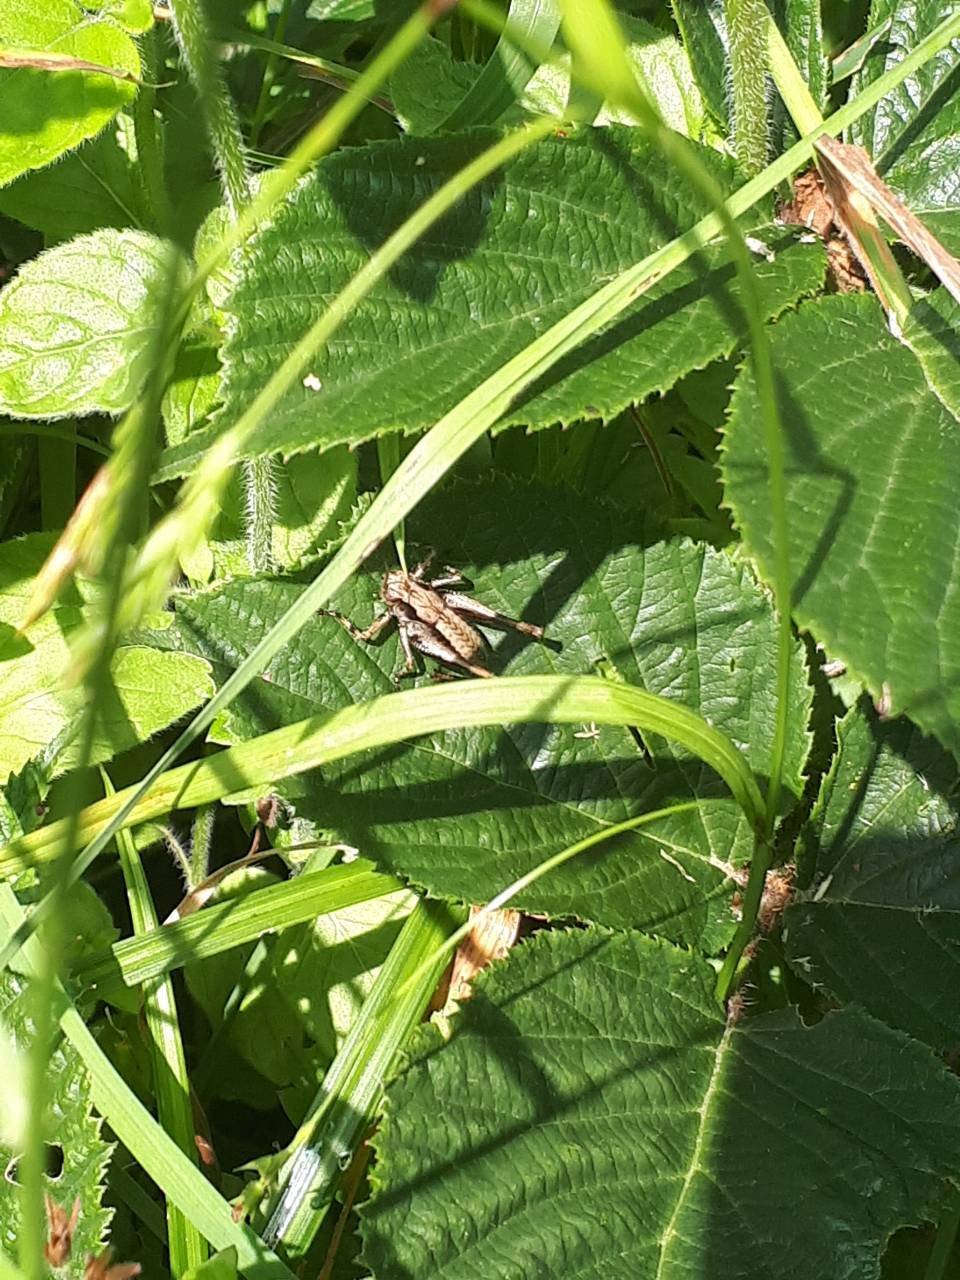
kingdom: Animalia
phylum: Arthropoda
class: Insecta
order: Orthoptera
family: Tettigoniidae
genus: Pholidoptera
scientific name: Pholidoptera griseoaptera
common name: Dark bush-cricket
